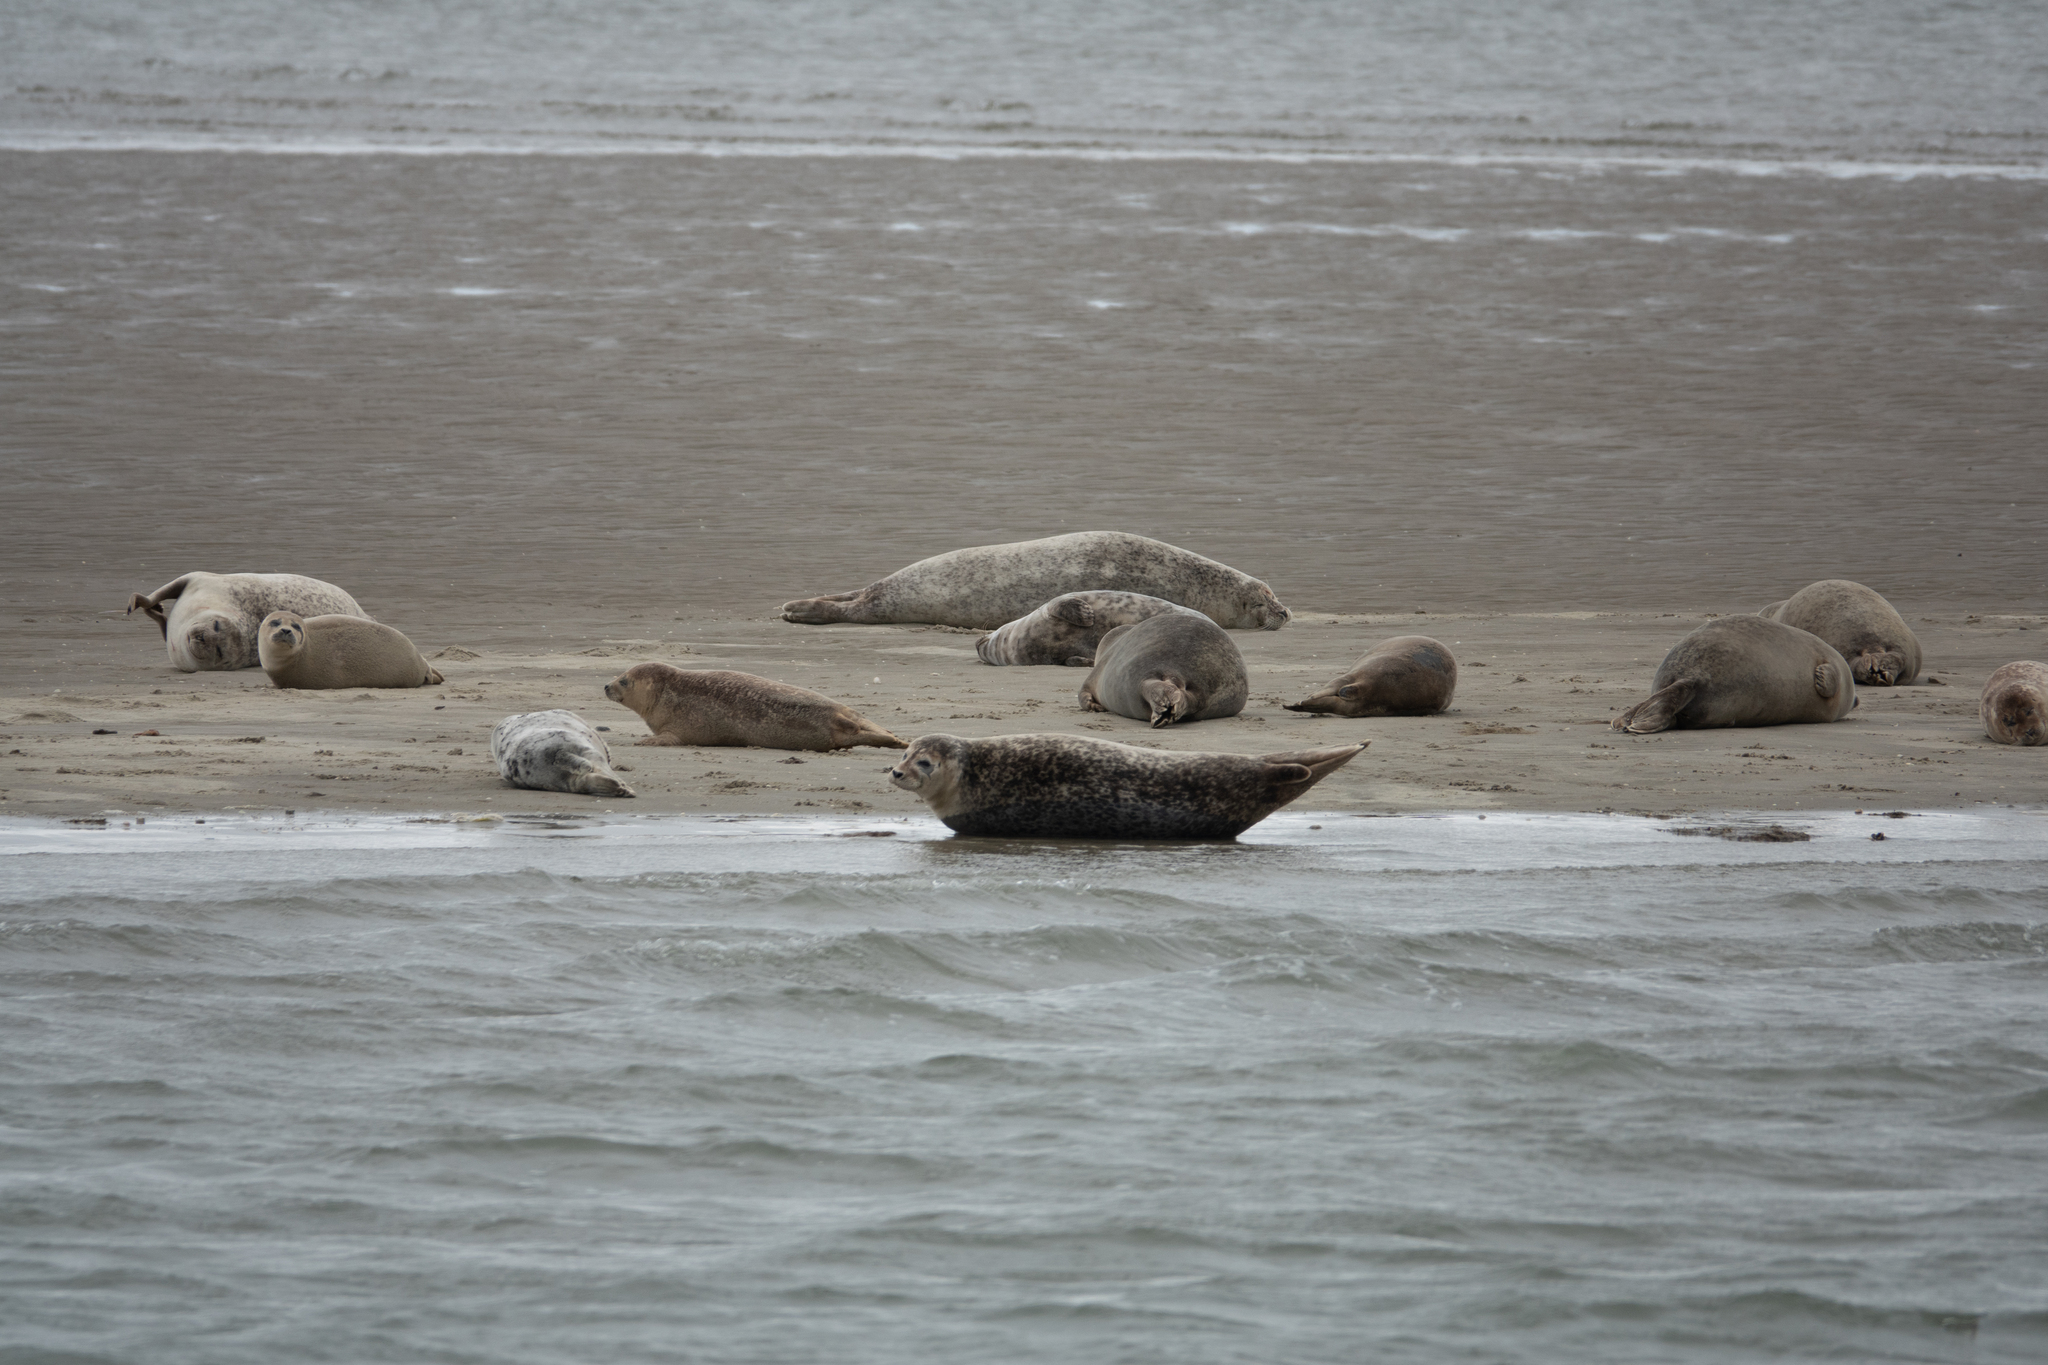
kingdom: Animalia
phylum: Chordata
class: Mammalia
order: Carnivora
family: Phocidae
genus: Phoca
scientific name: Phoca vitulina
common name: Harbor seal
